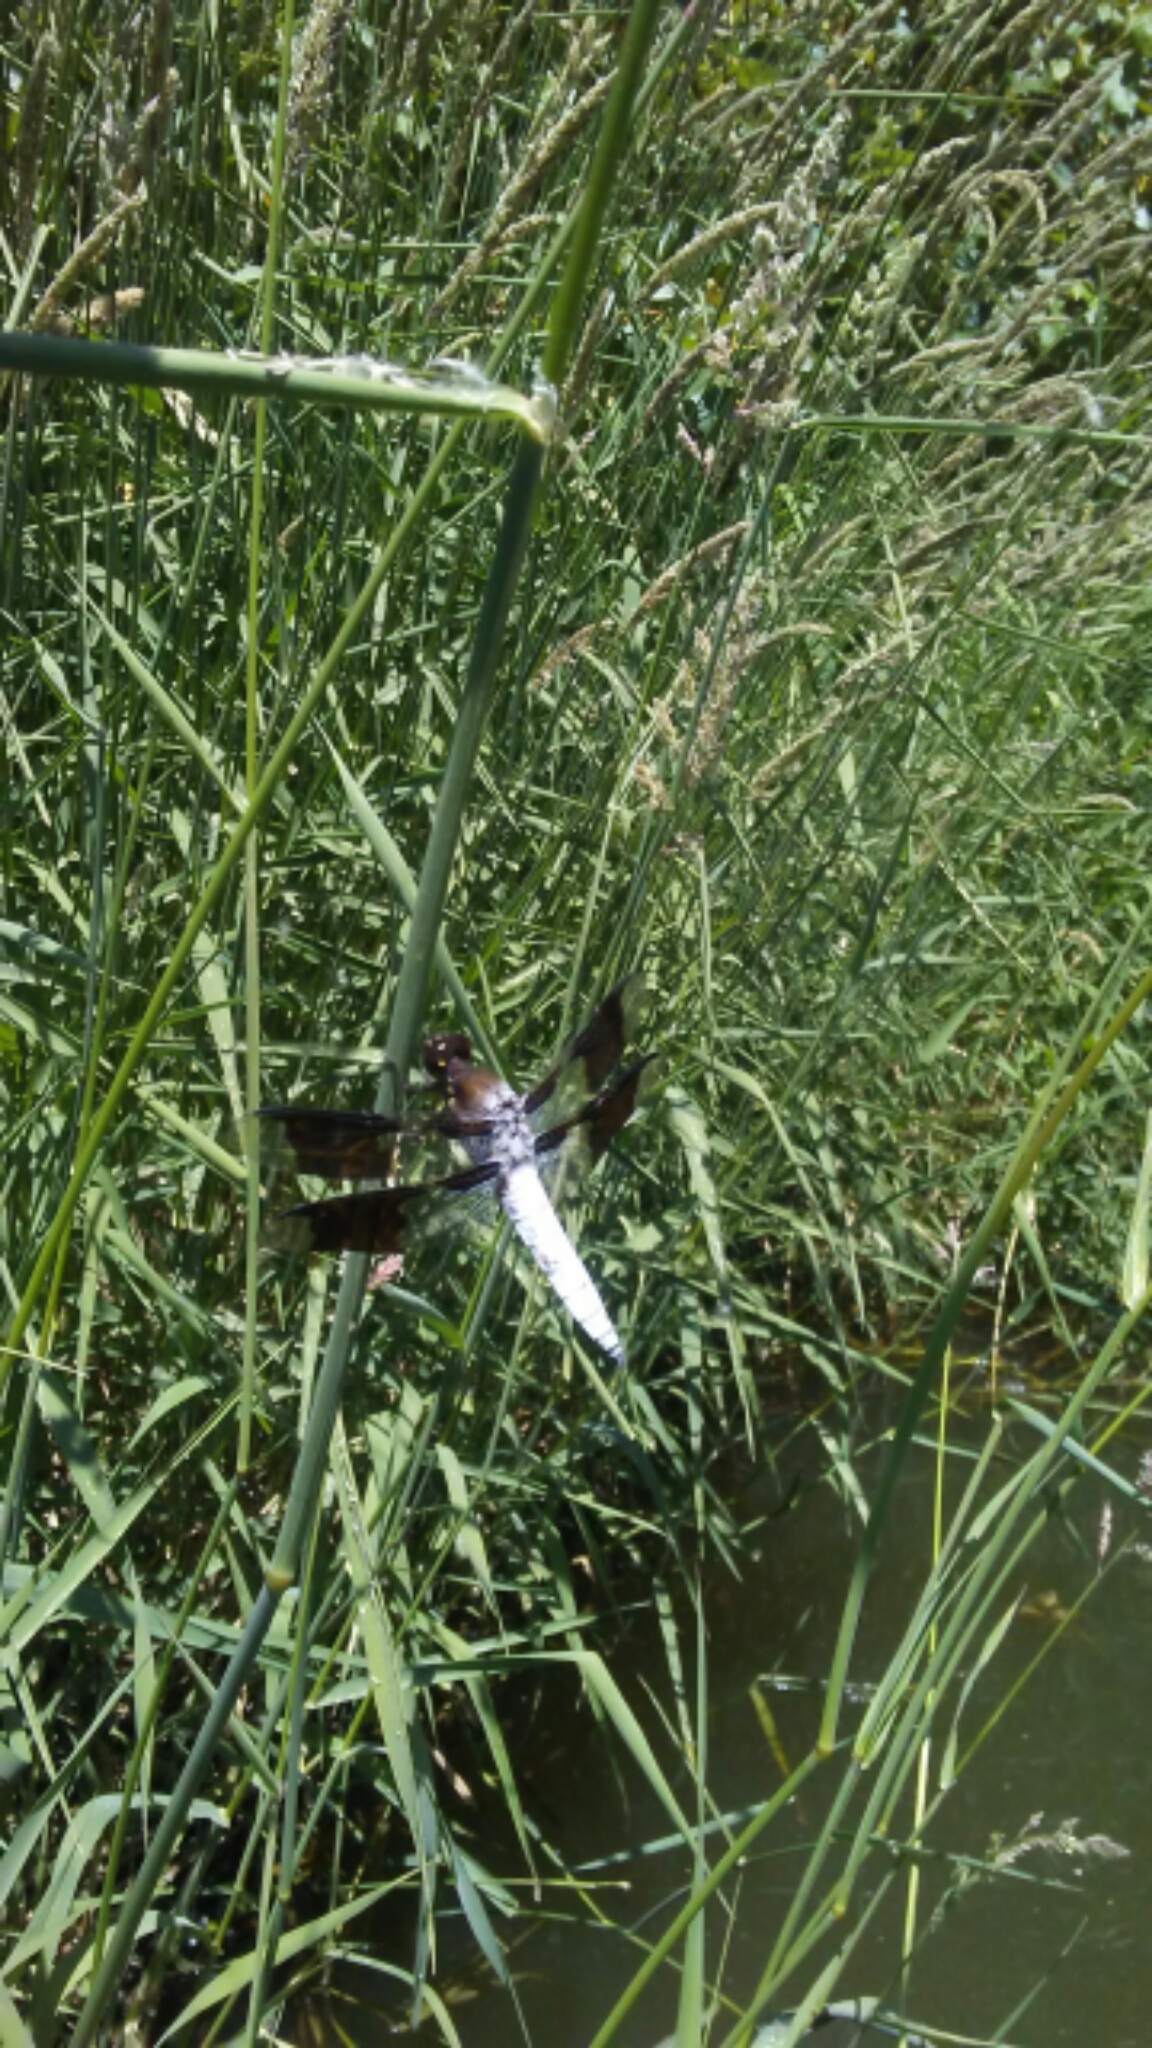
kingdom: Animalia
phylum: Arthropoda
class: Insecta
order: Odonata
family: Libellulidae
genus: Plathemis
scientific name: Plathemis lydia
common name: Common whitetail
